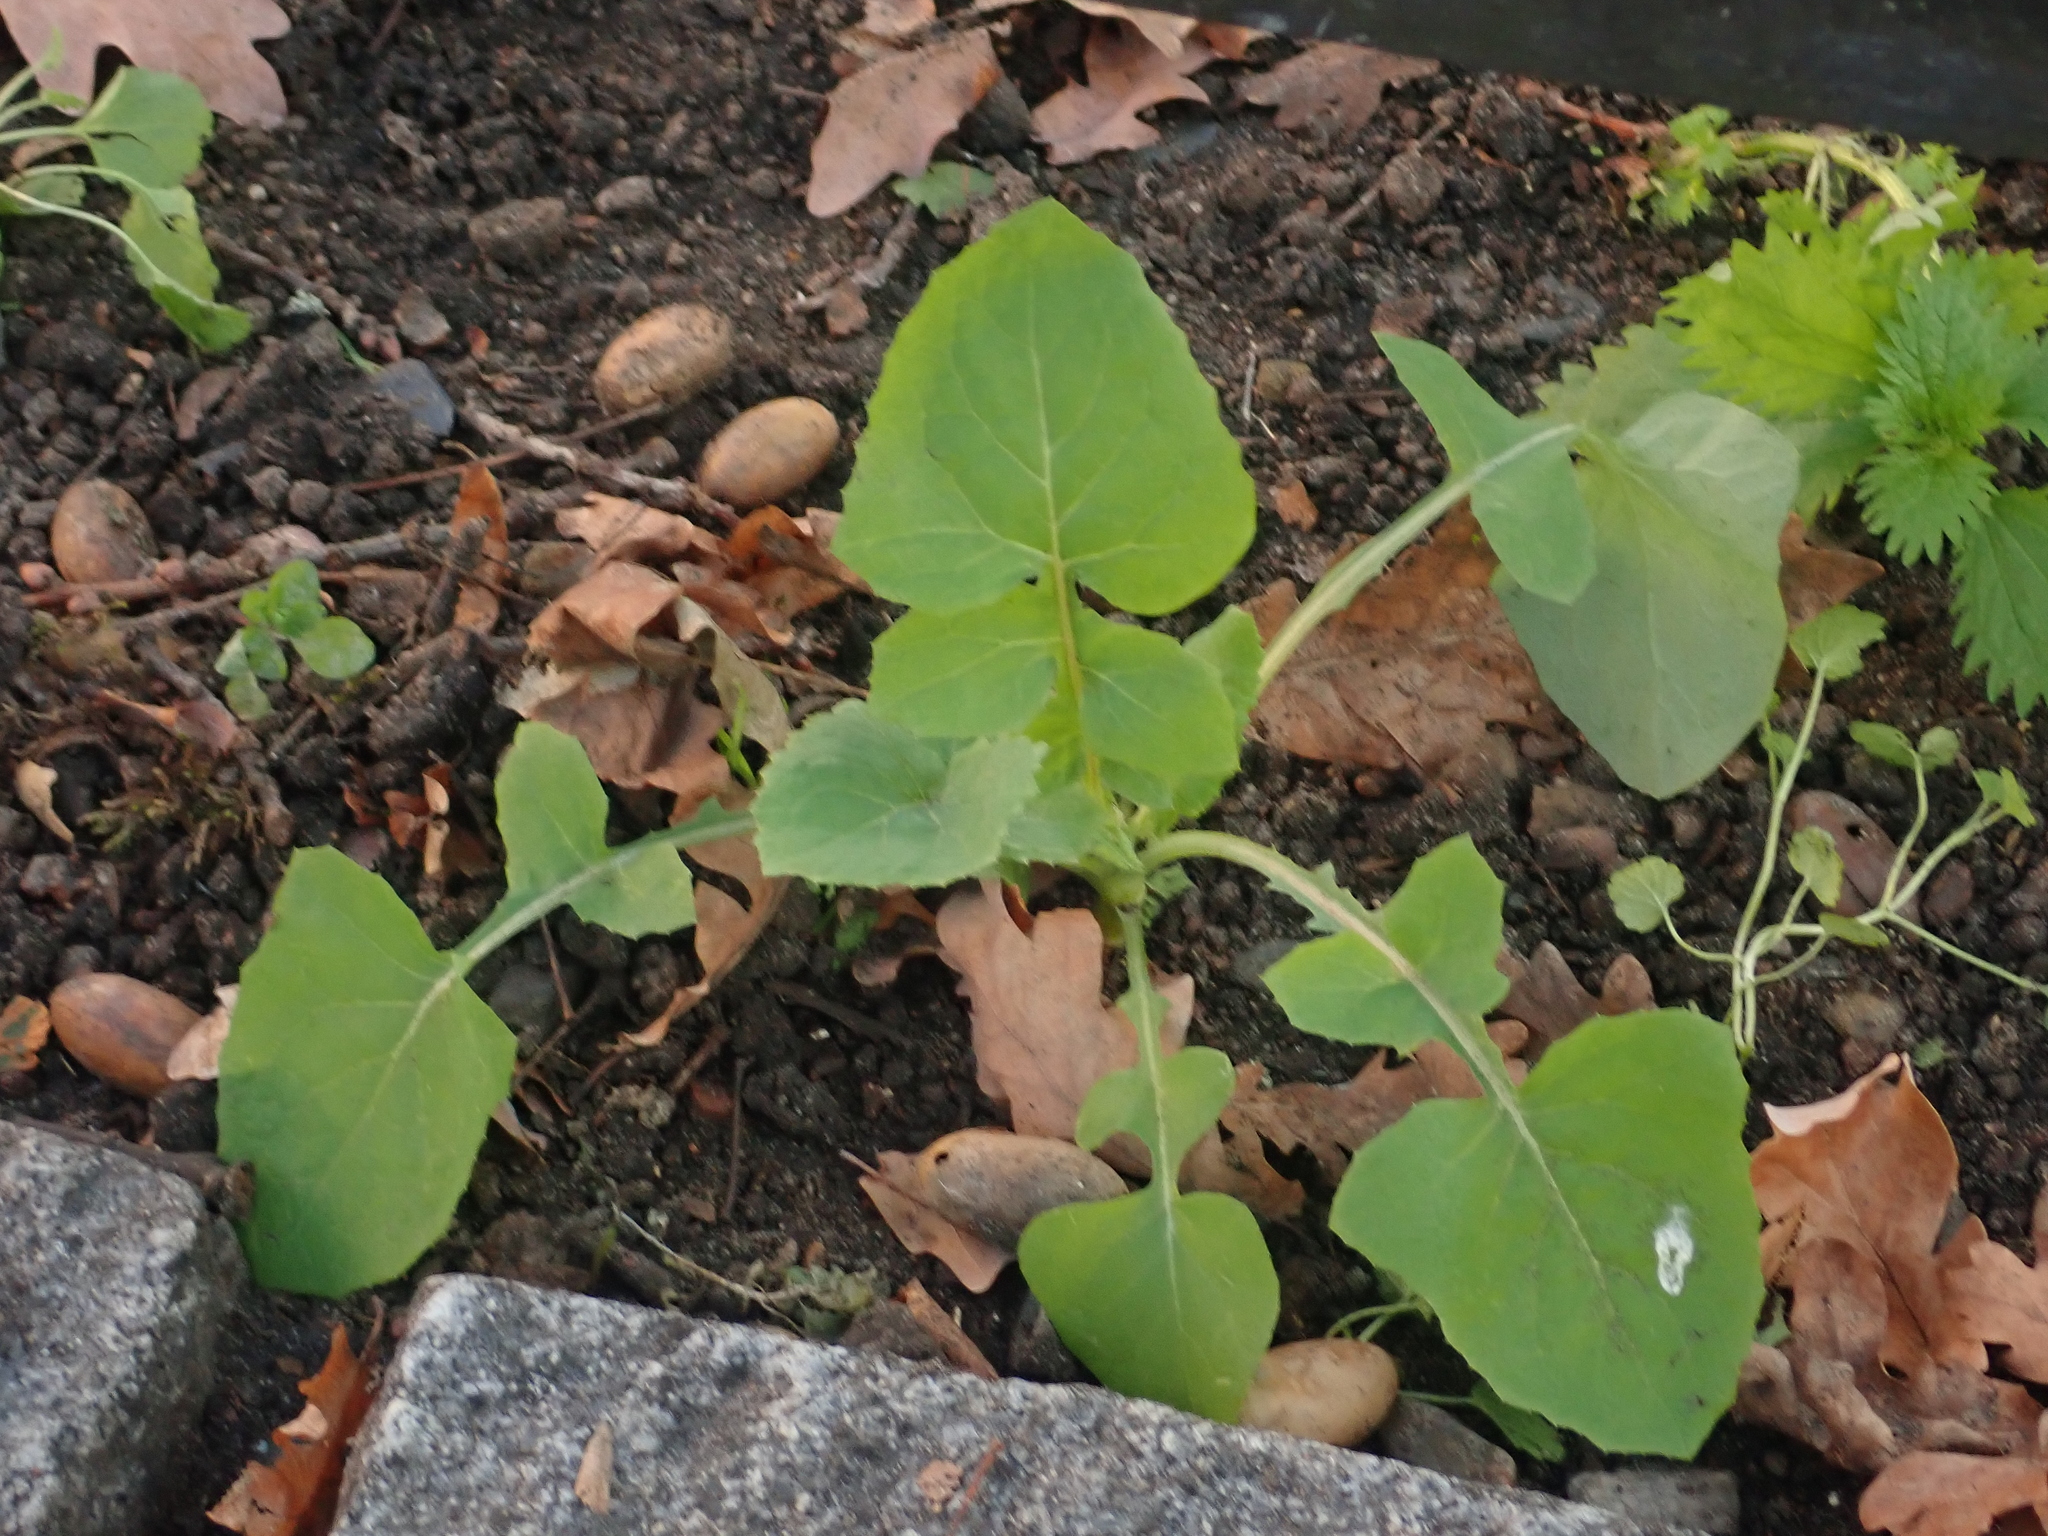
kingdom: Plantae
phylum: Tracheophyta
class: Magnoliopsida
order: Asterales
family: Asteraceae
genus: Sonchus
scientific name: Sonchus oleraceus
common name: Common sowthistle
